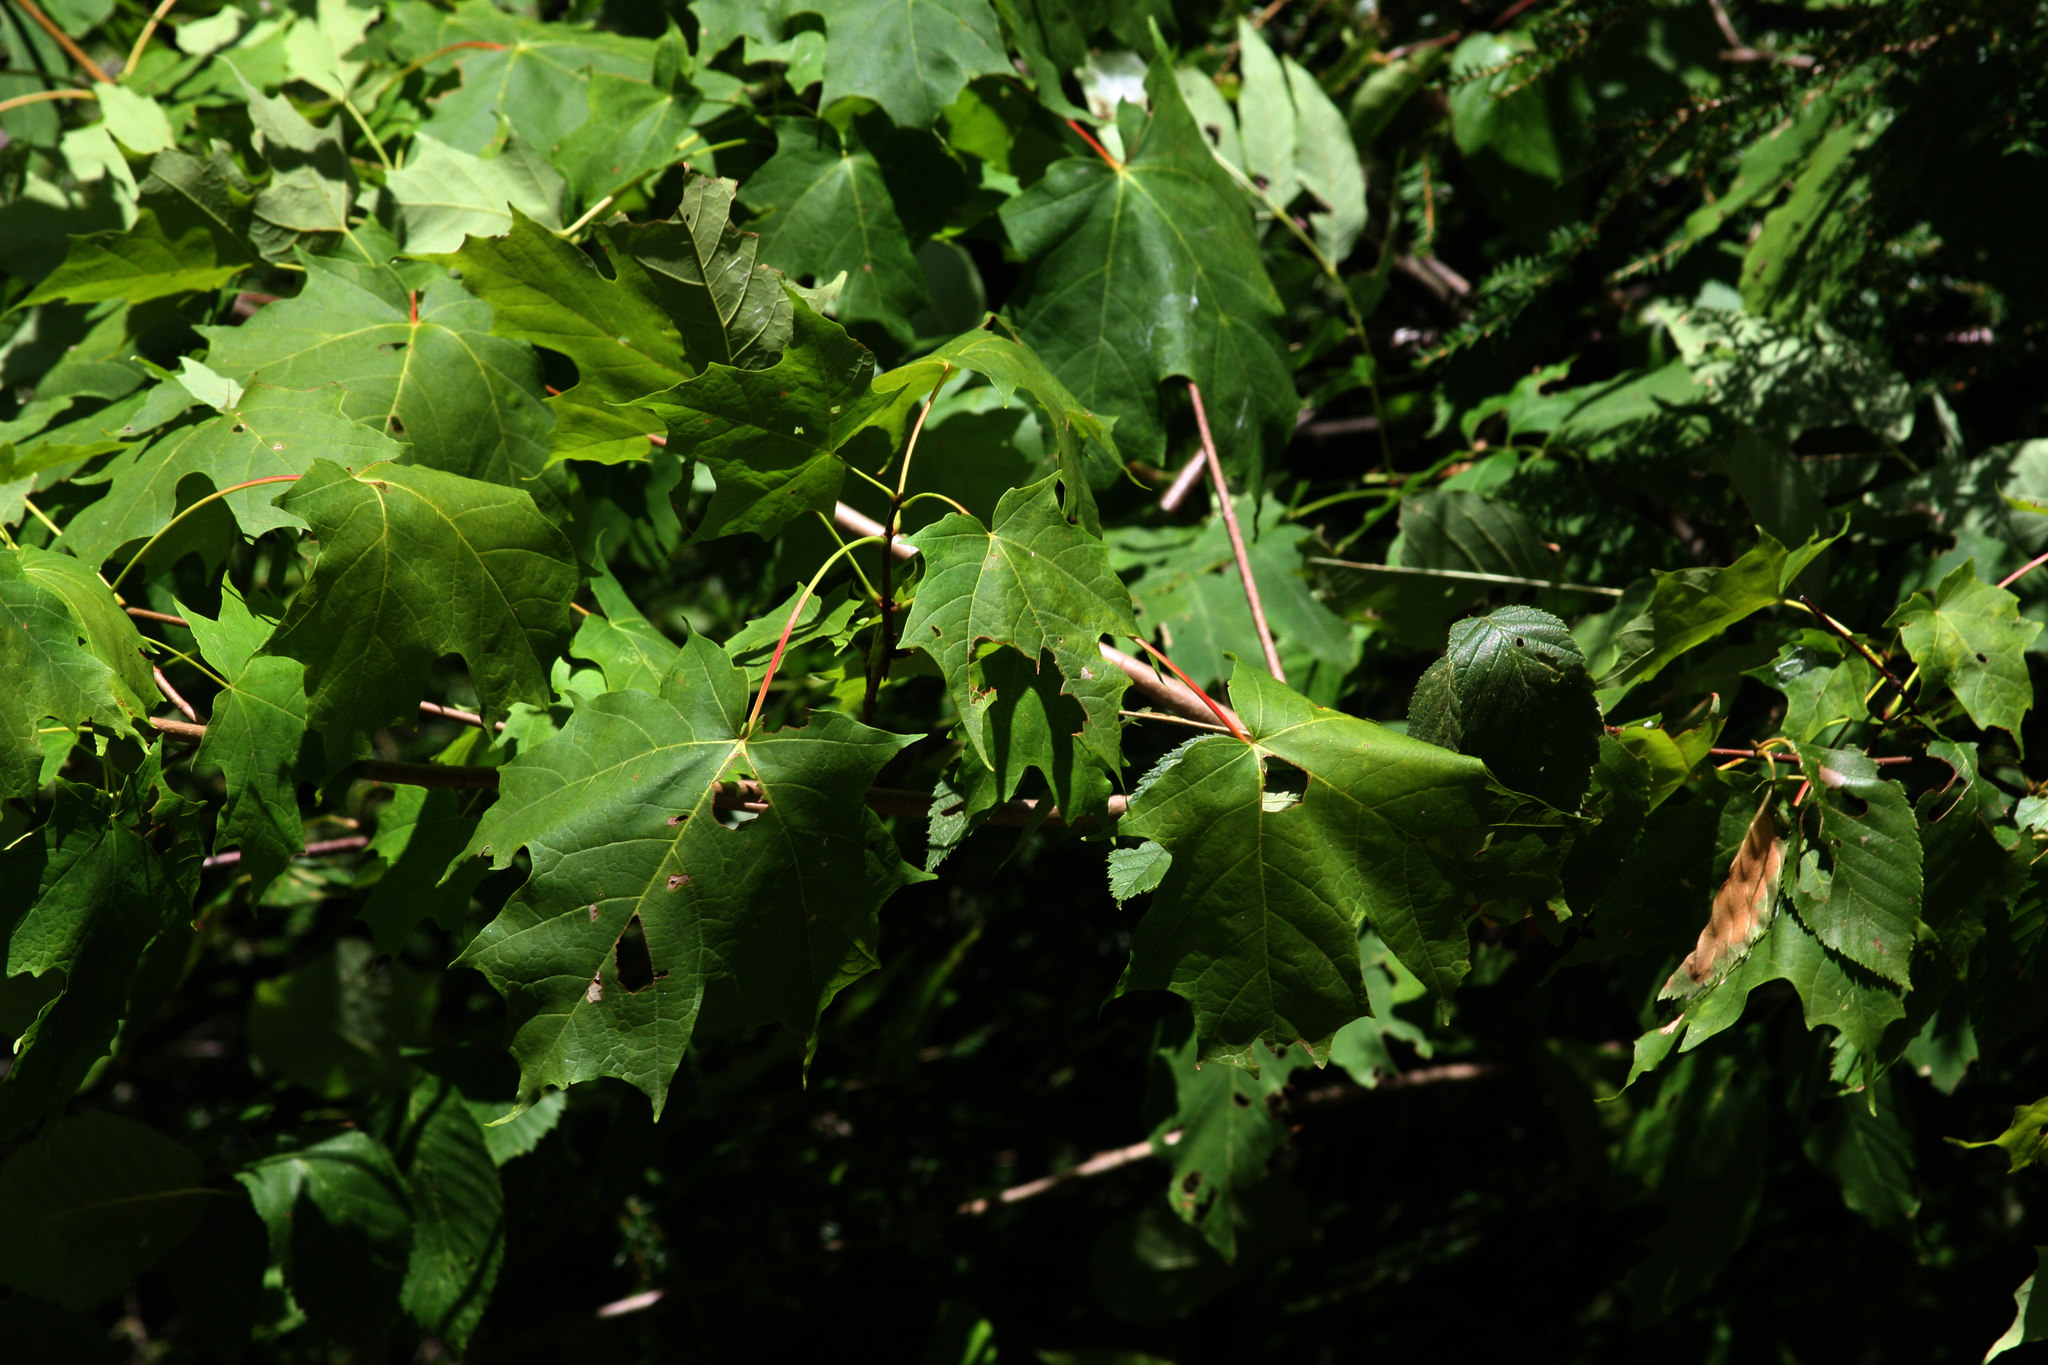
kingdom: Plantae
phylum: Tracheophyta
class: Magnoliopsida
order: Sapindales
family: Sapindaceae
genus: Acer
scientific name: Acer saccharum
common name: Sugar maple
